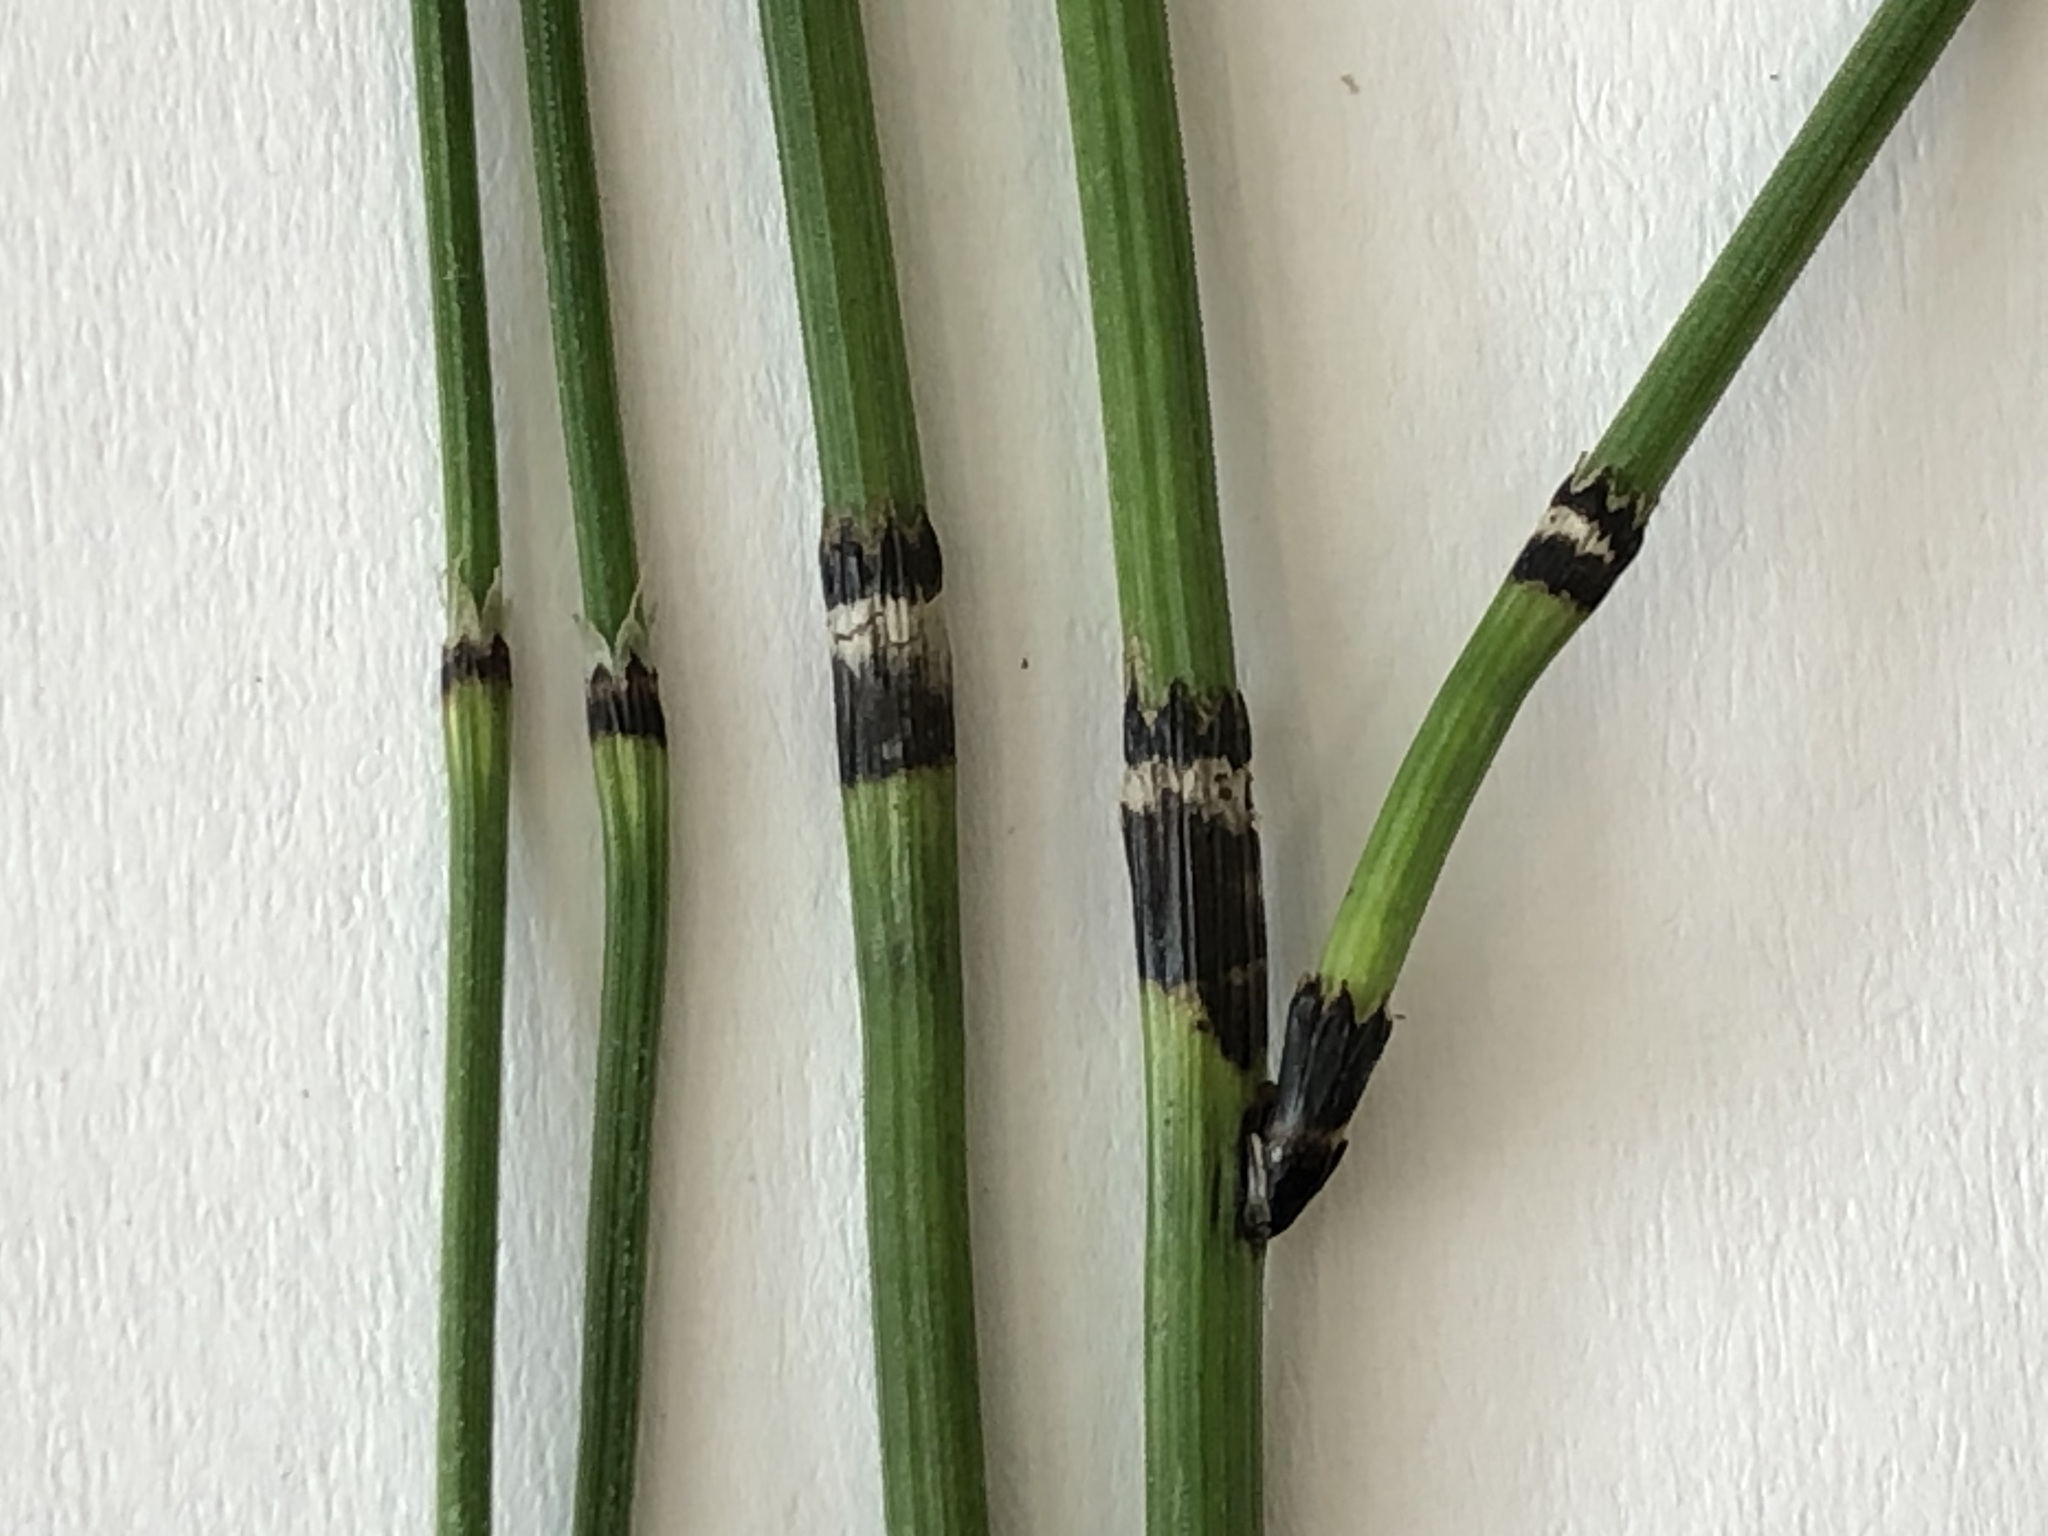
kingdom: Plantae
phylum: Tracheophyta
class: Polypodiopsida
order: Equisetales
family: Equisetaceae
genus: Equisetum
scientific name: Equisetum variegatum
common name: Variegated horsetail
